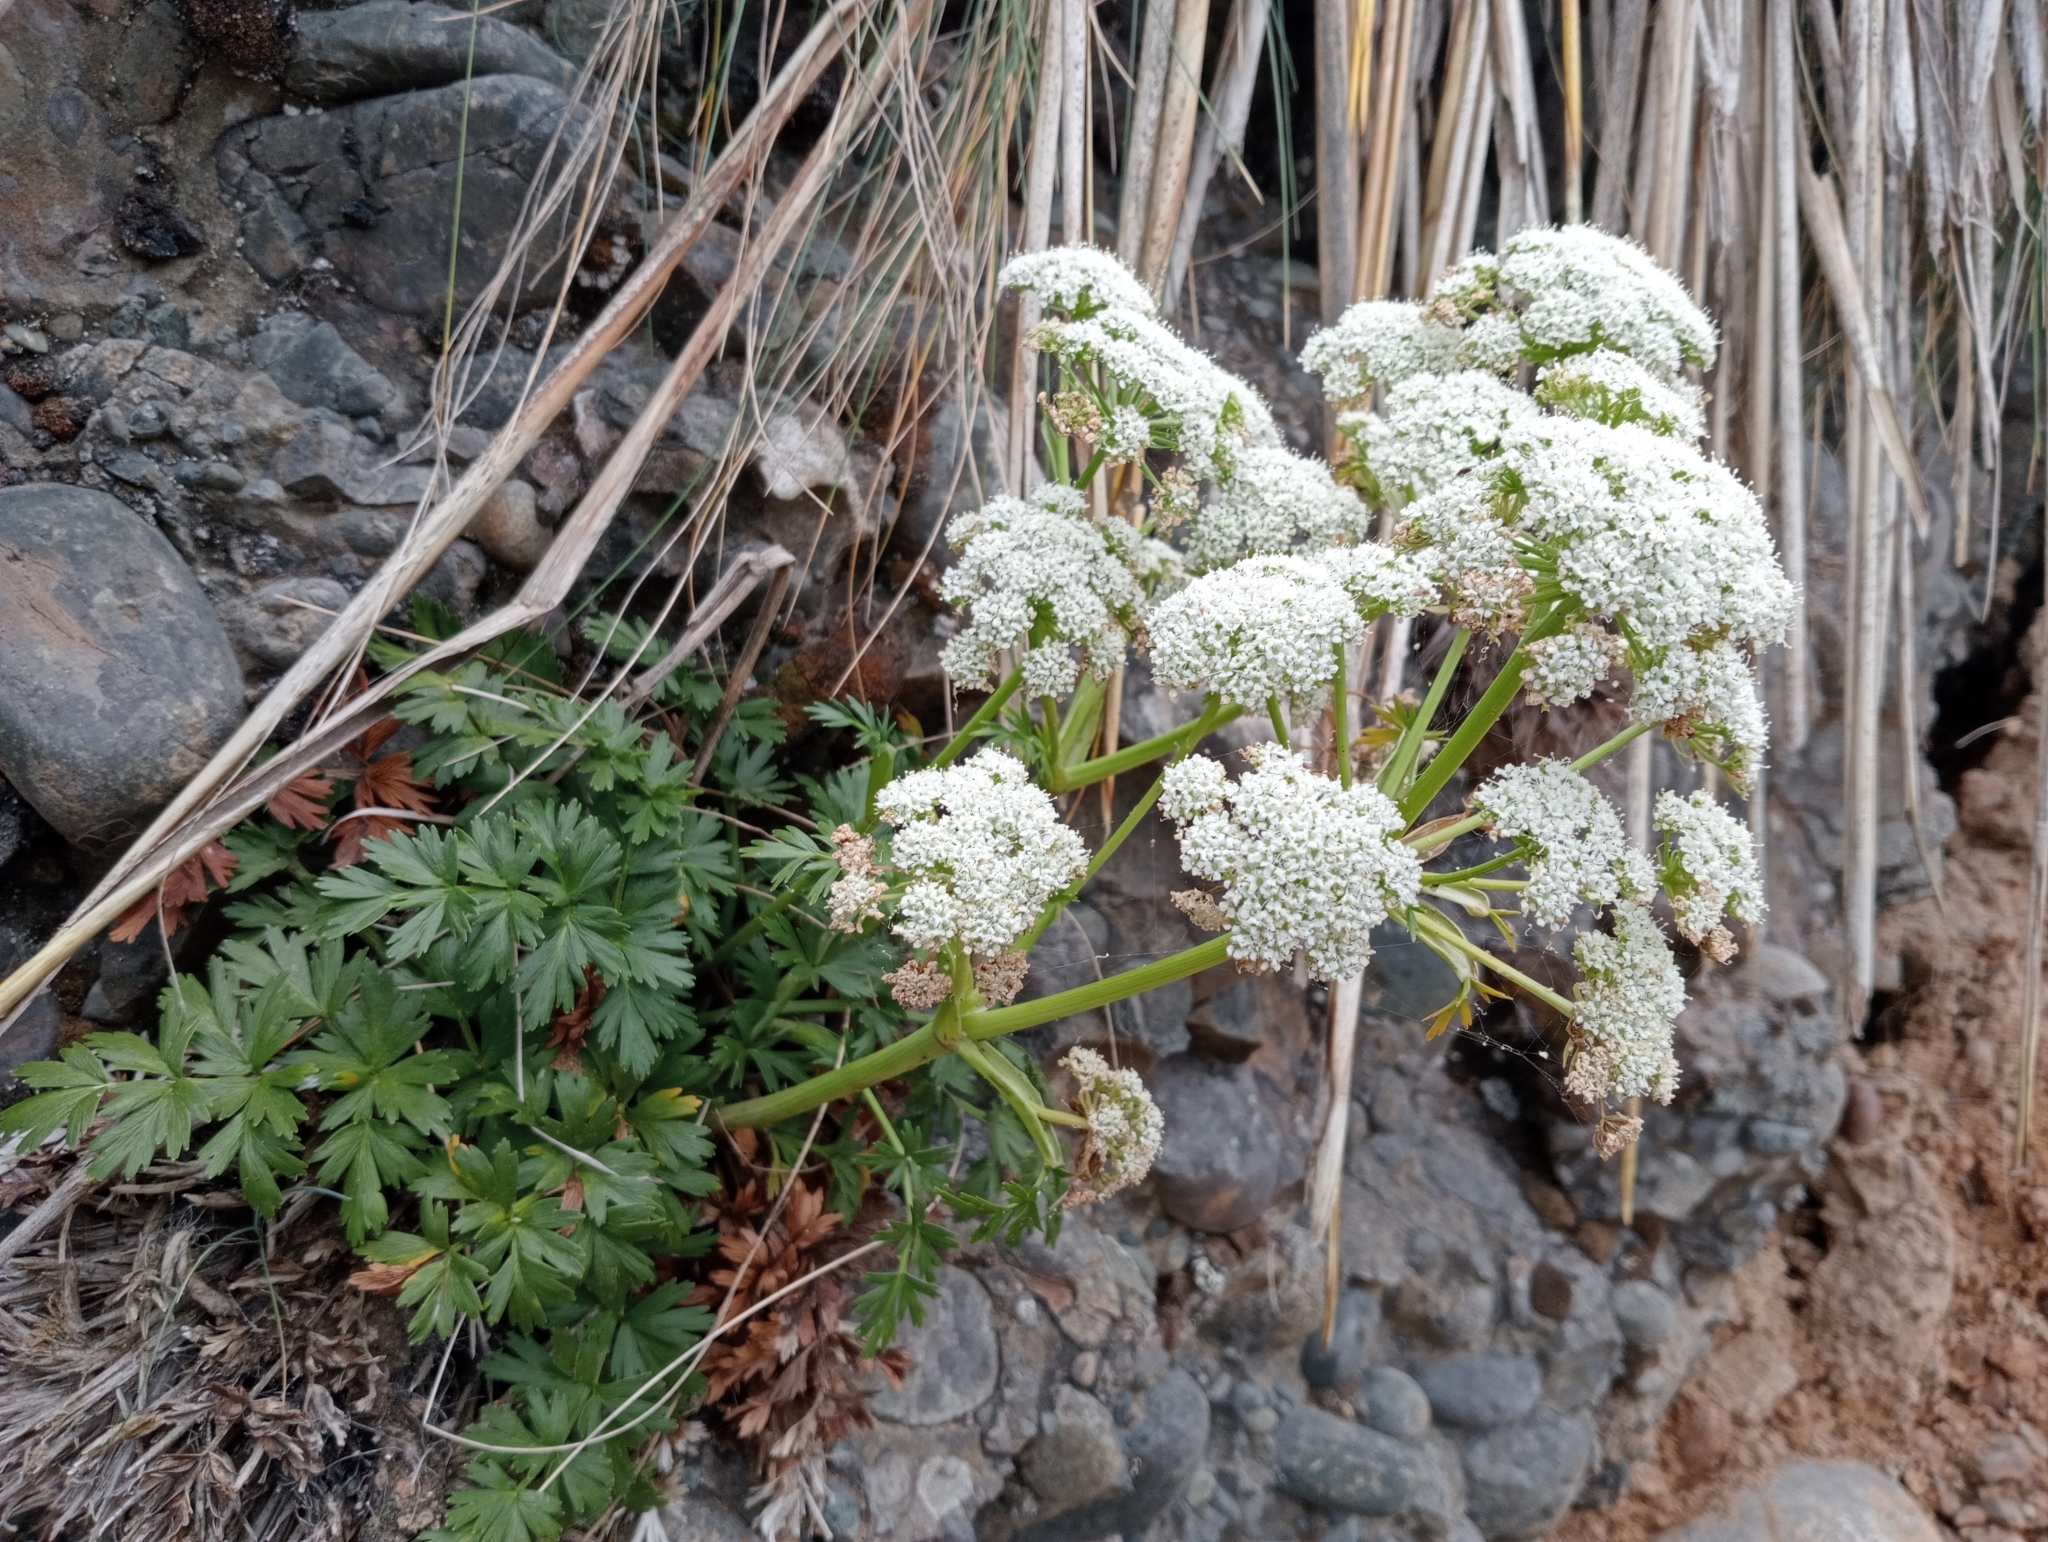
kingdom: Plantae
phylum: Tracheophyta
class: Magnoliopsida
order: Apiales
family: Apiaceae
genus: Anisotome
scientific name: Anisotome lyallii
